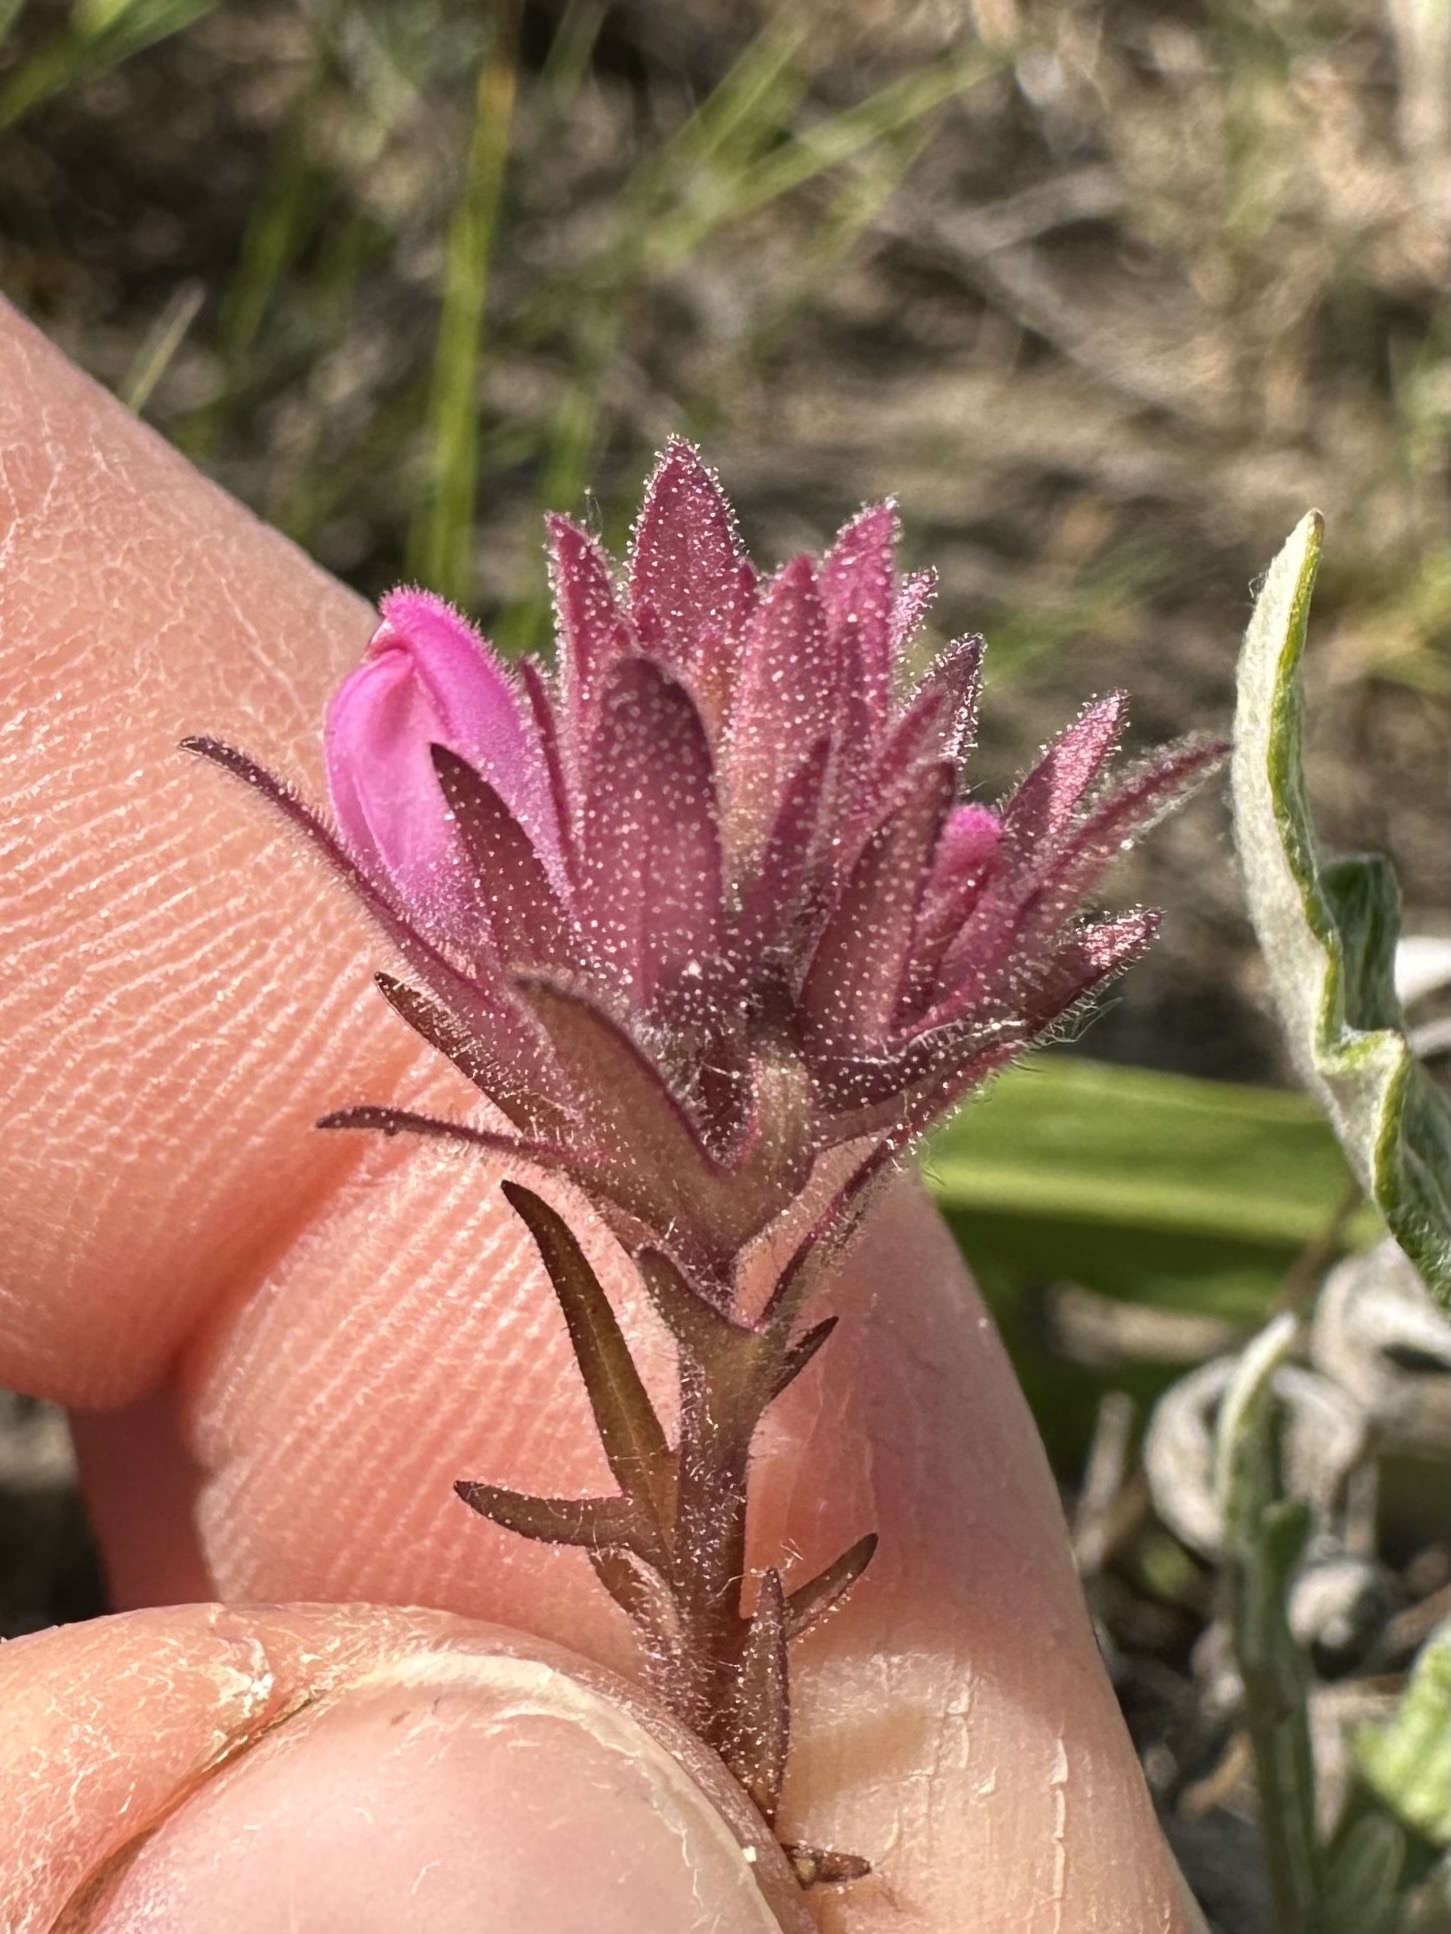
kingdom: Plantae
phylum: Tracheophyta
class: Magnoliopsida
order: Lamiales
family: Orobanchaceae
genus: Orthocarpus
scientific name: Orthocarpus bracteosus
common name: Rosy owl's-clover
